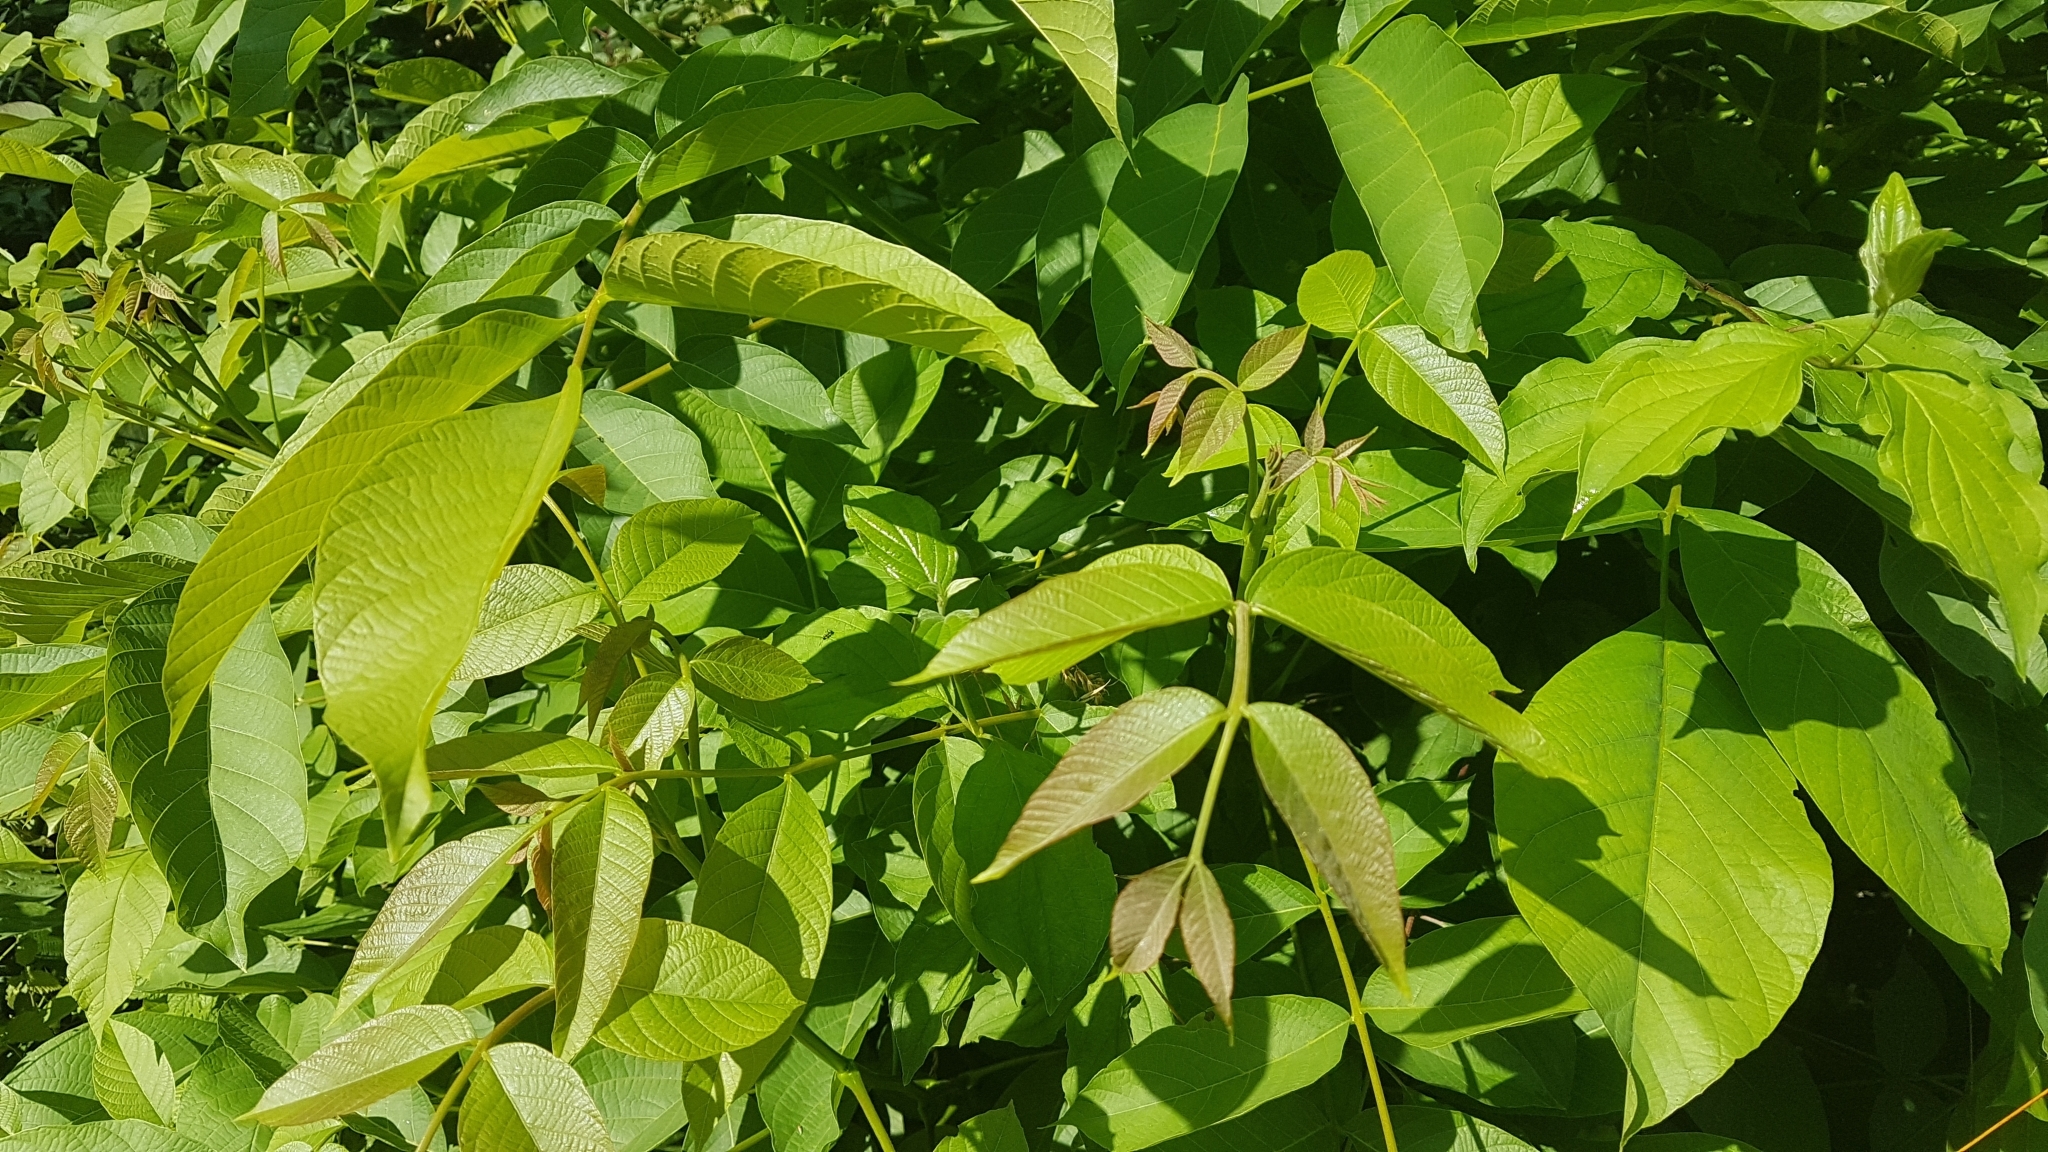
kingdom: Plantae
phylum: Tracheophyta
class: Magnoliopsida
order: Fagales
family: Juglandaceae
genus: Juglans
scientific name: Juglans regia
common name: Walnut
